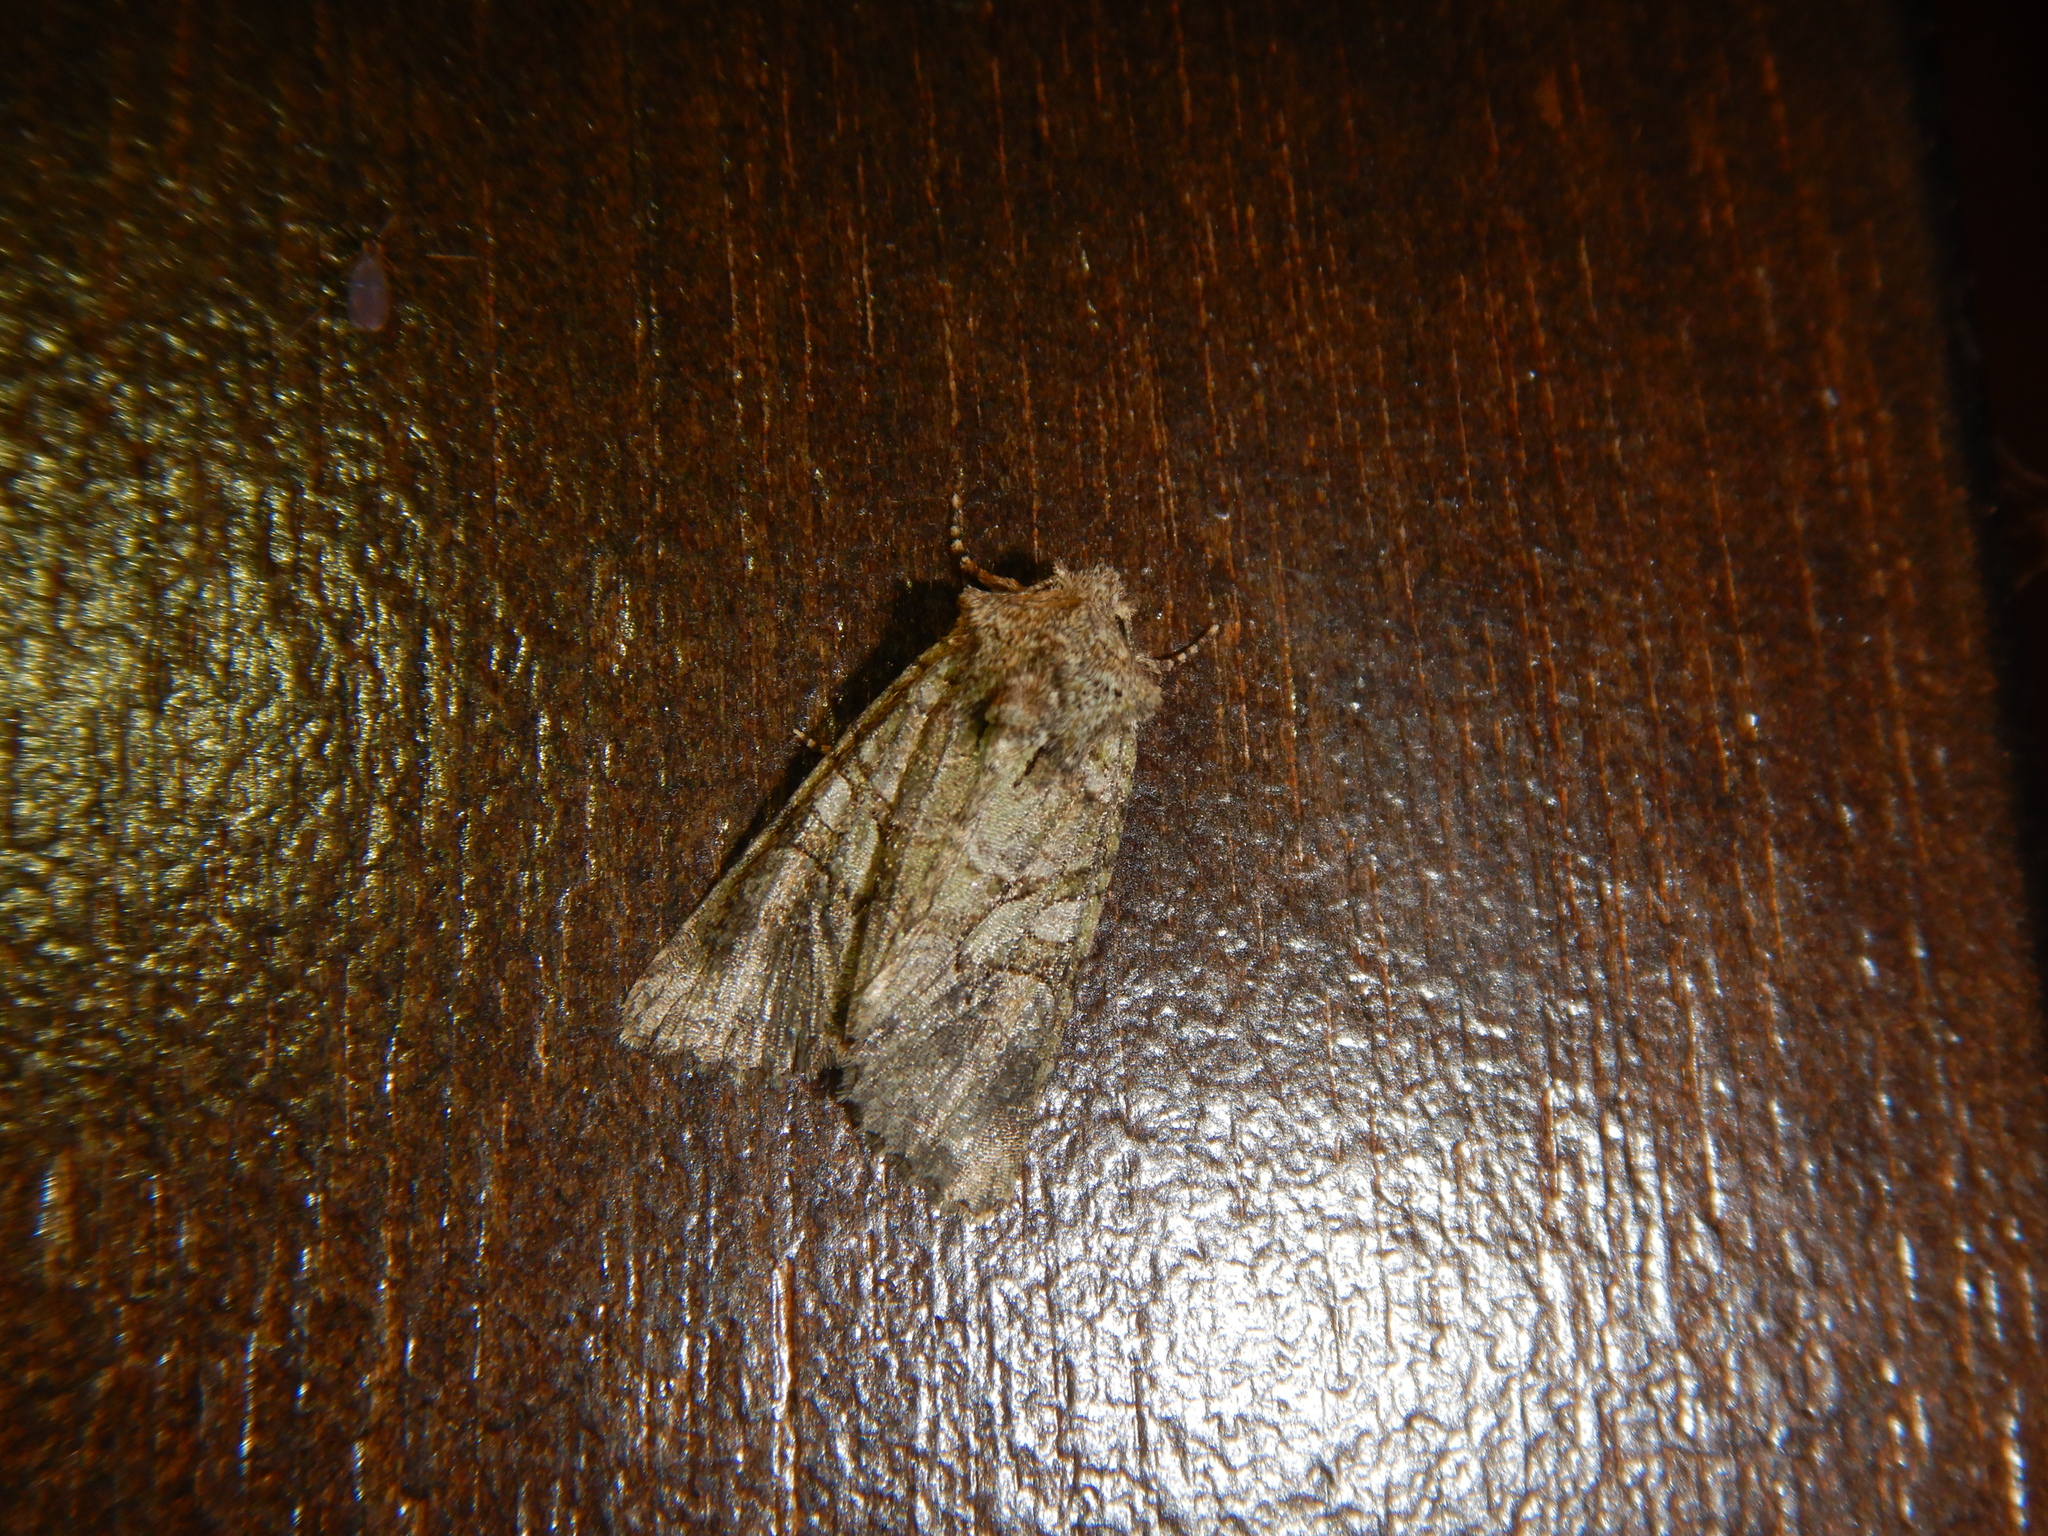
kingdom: Animalia
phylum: Arthropoda
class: Insecta
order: Lepidoptera
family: Noctuidae
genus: Dryobotodes
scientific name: Dryobotodes carbonis
